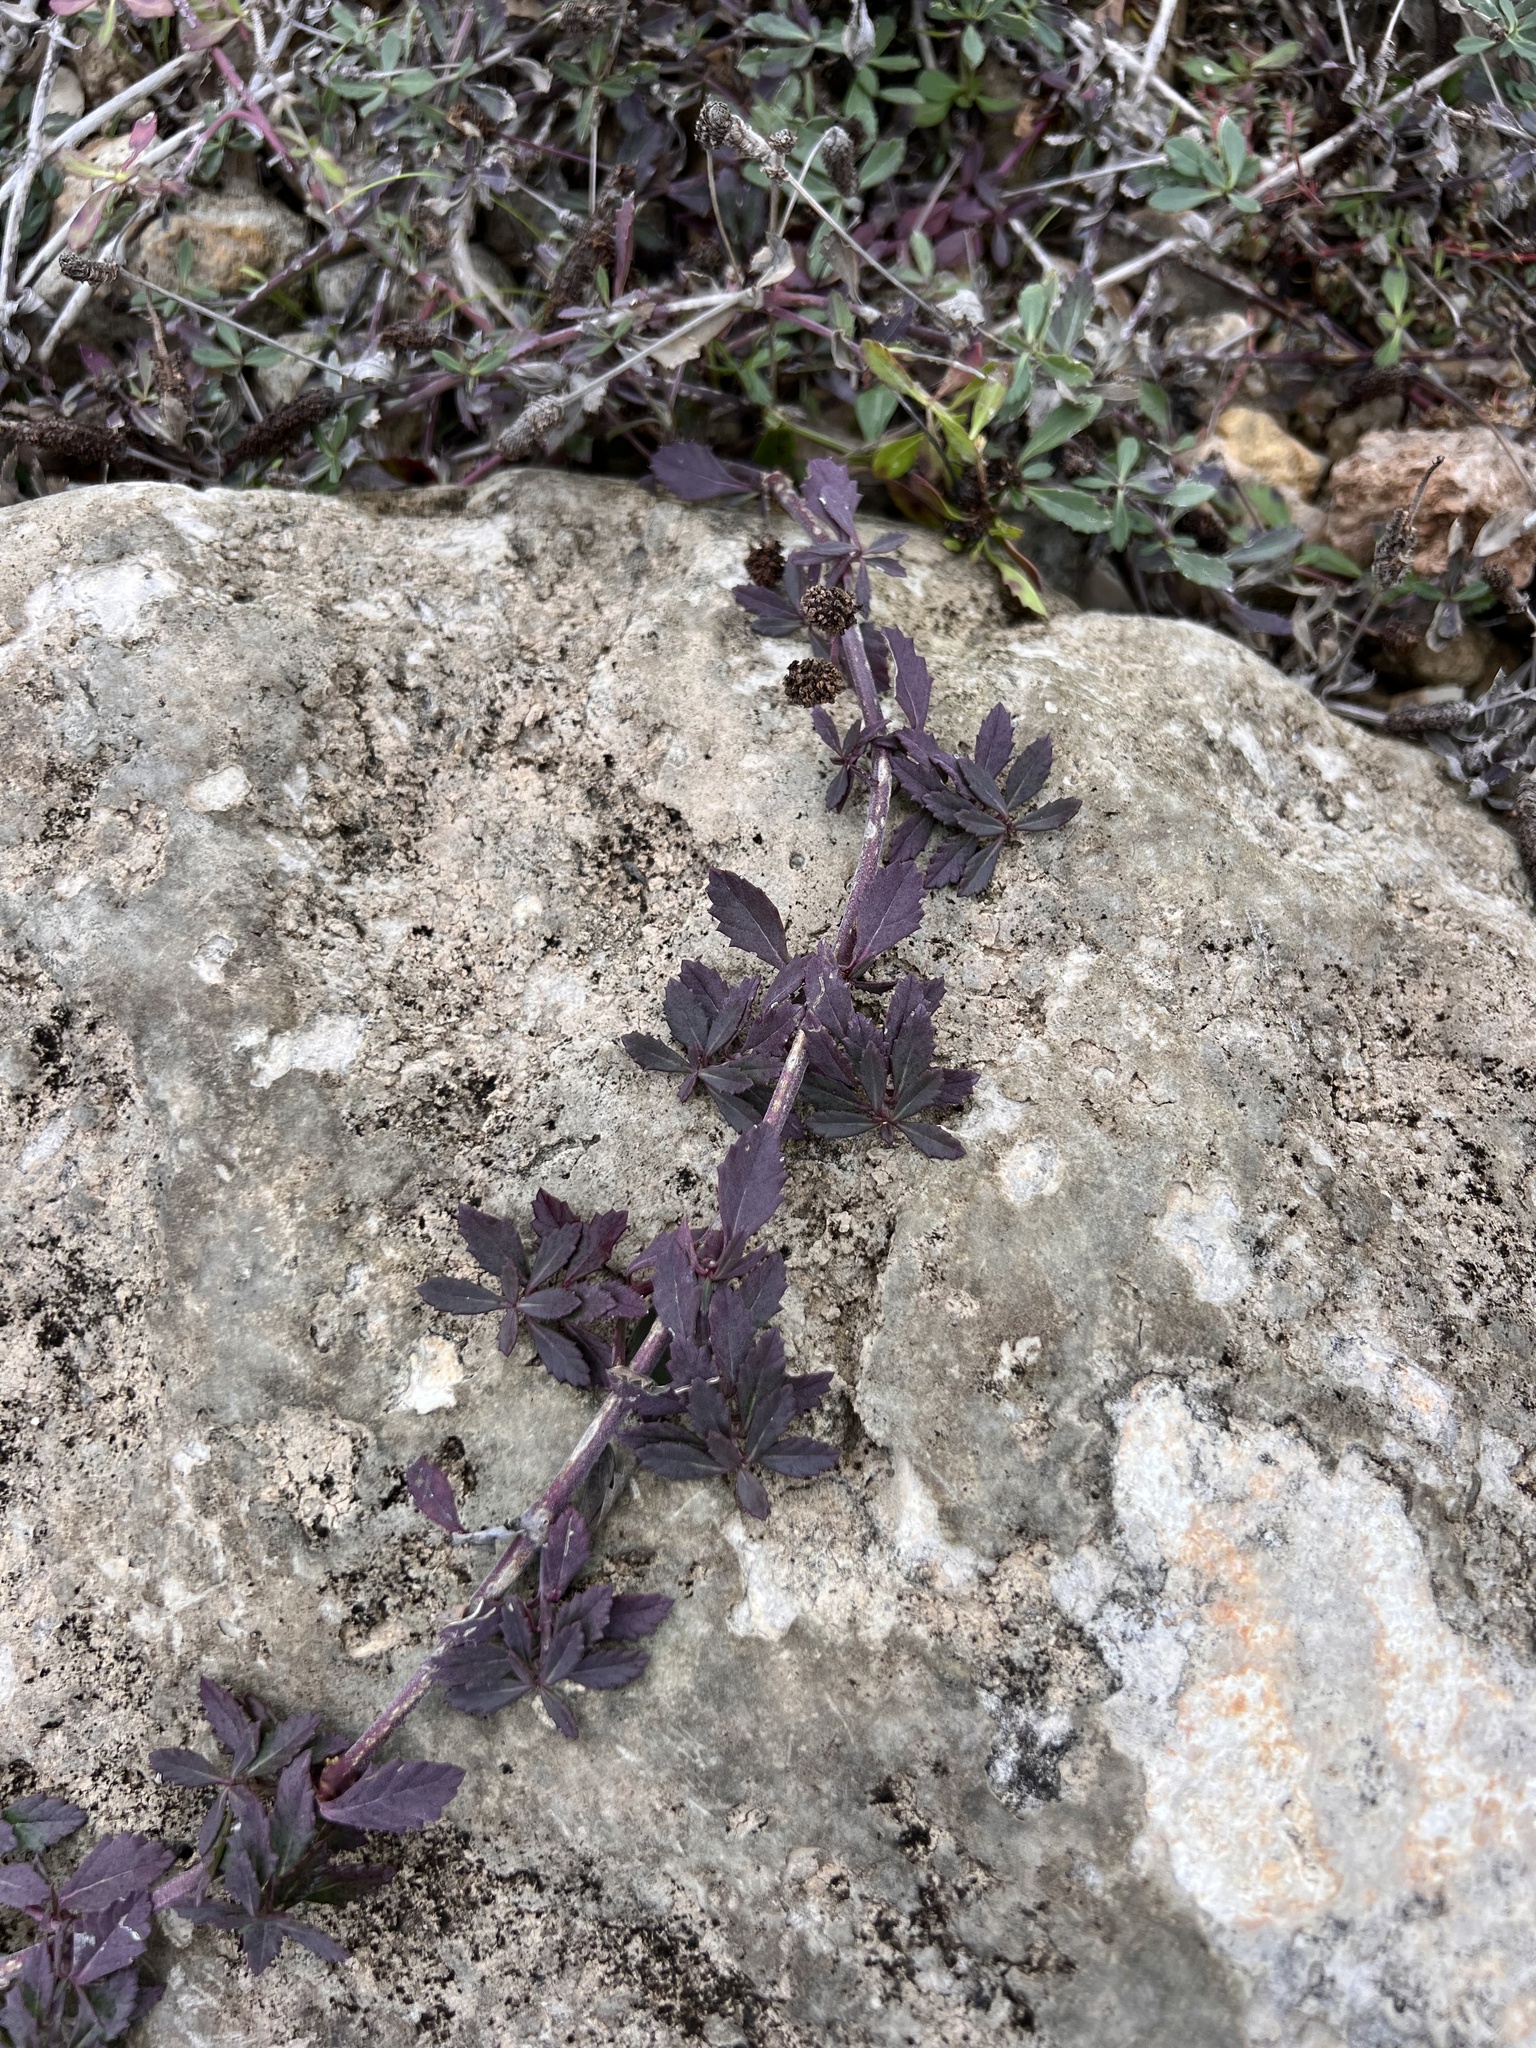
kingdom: Plantae
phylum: Tracheophyta
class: Magnoliopsida
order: Lamiales
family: Verbenaceae
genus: Phyla
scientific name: Phyla nodiflora
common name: Frogfruit
